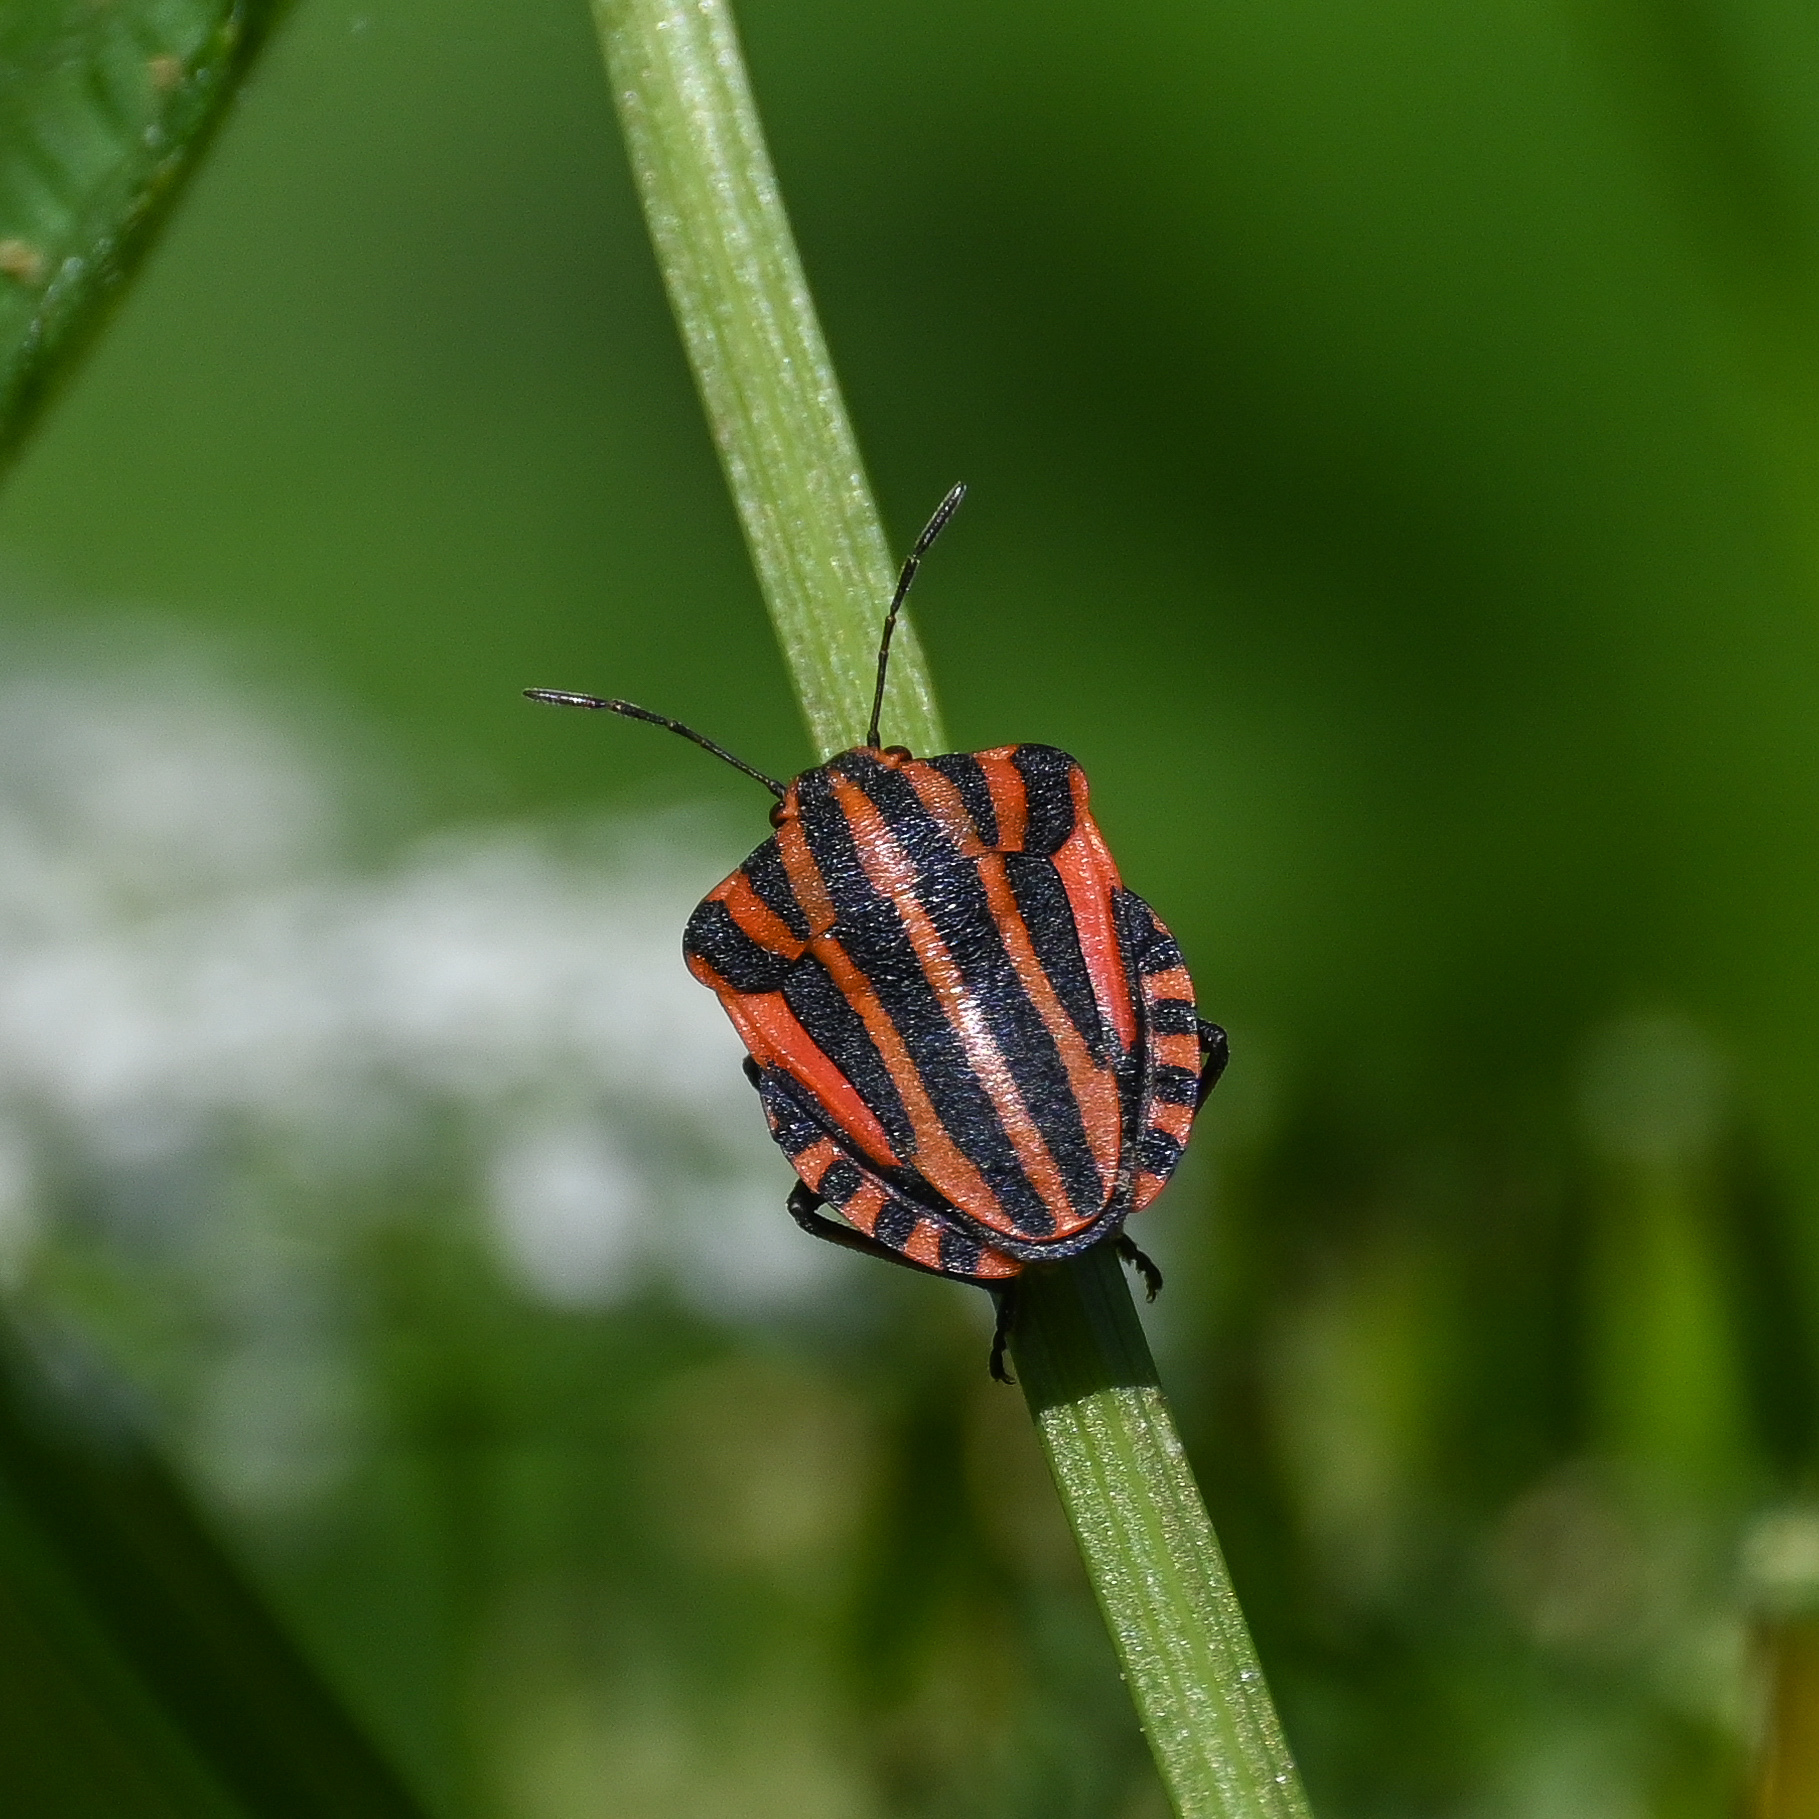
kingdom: Animalia
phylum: Arthropoda
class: Insecta
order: Hemiptera
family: Pentatomidae
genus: Graphosoma
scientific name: Graphosoma italicum
